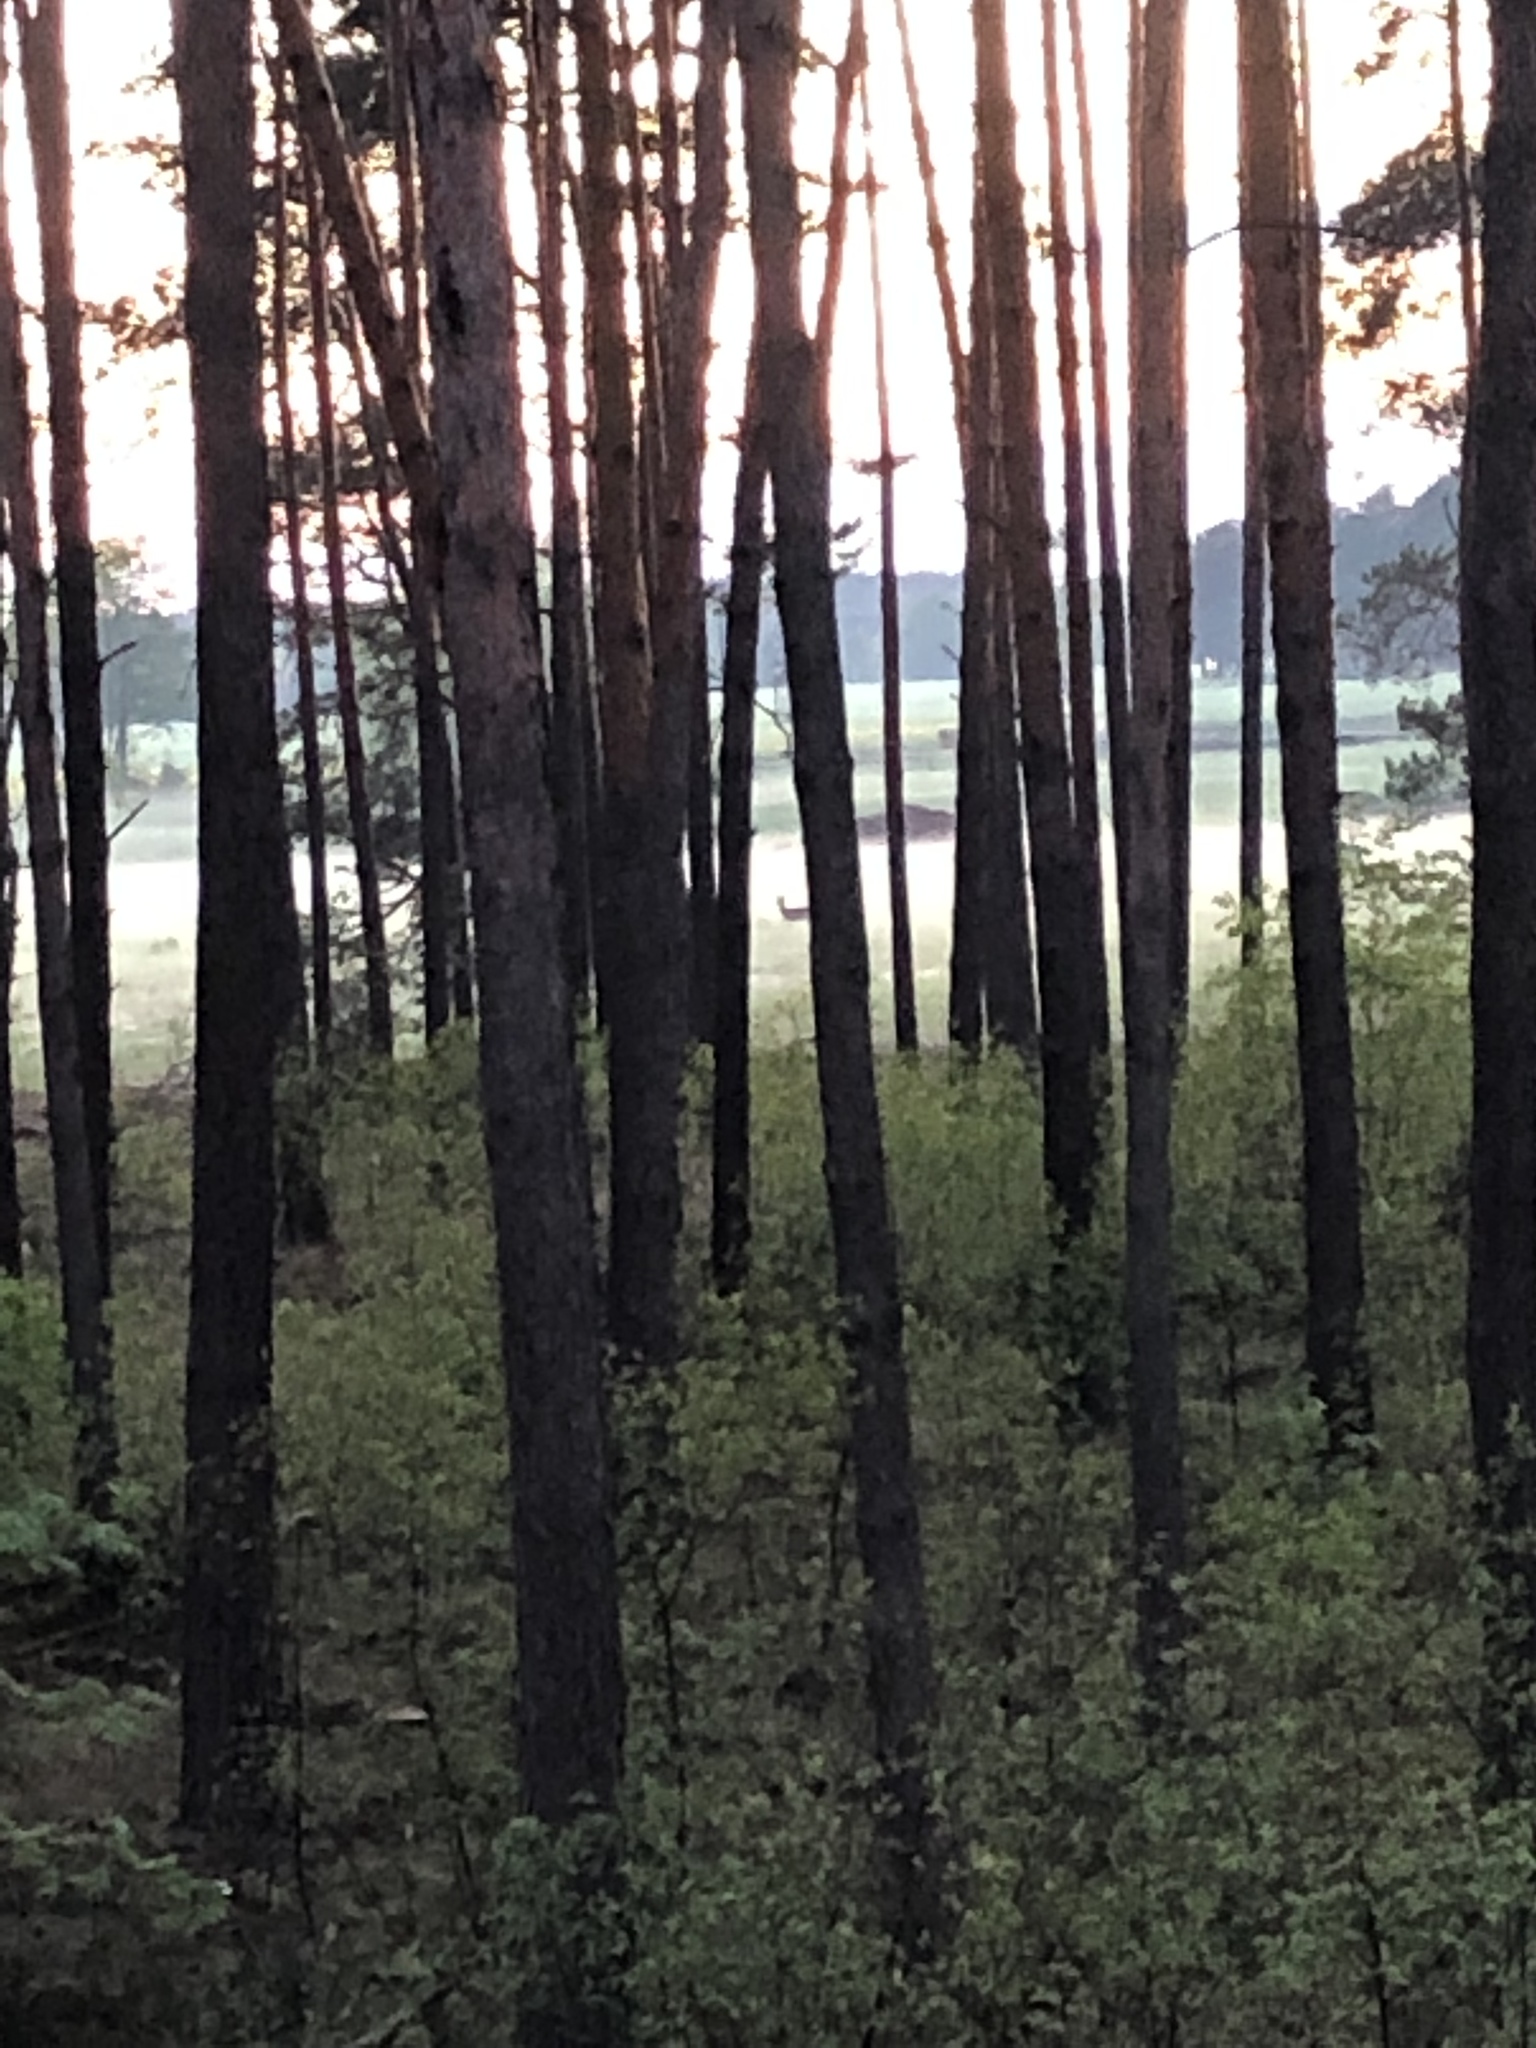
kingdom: Animalia
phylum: Chordata
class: Mammalia
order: Artiodactyla
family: Cervidae
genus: Capreolus
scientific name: Capreolus capreolus
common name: Western roe deer
